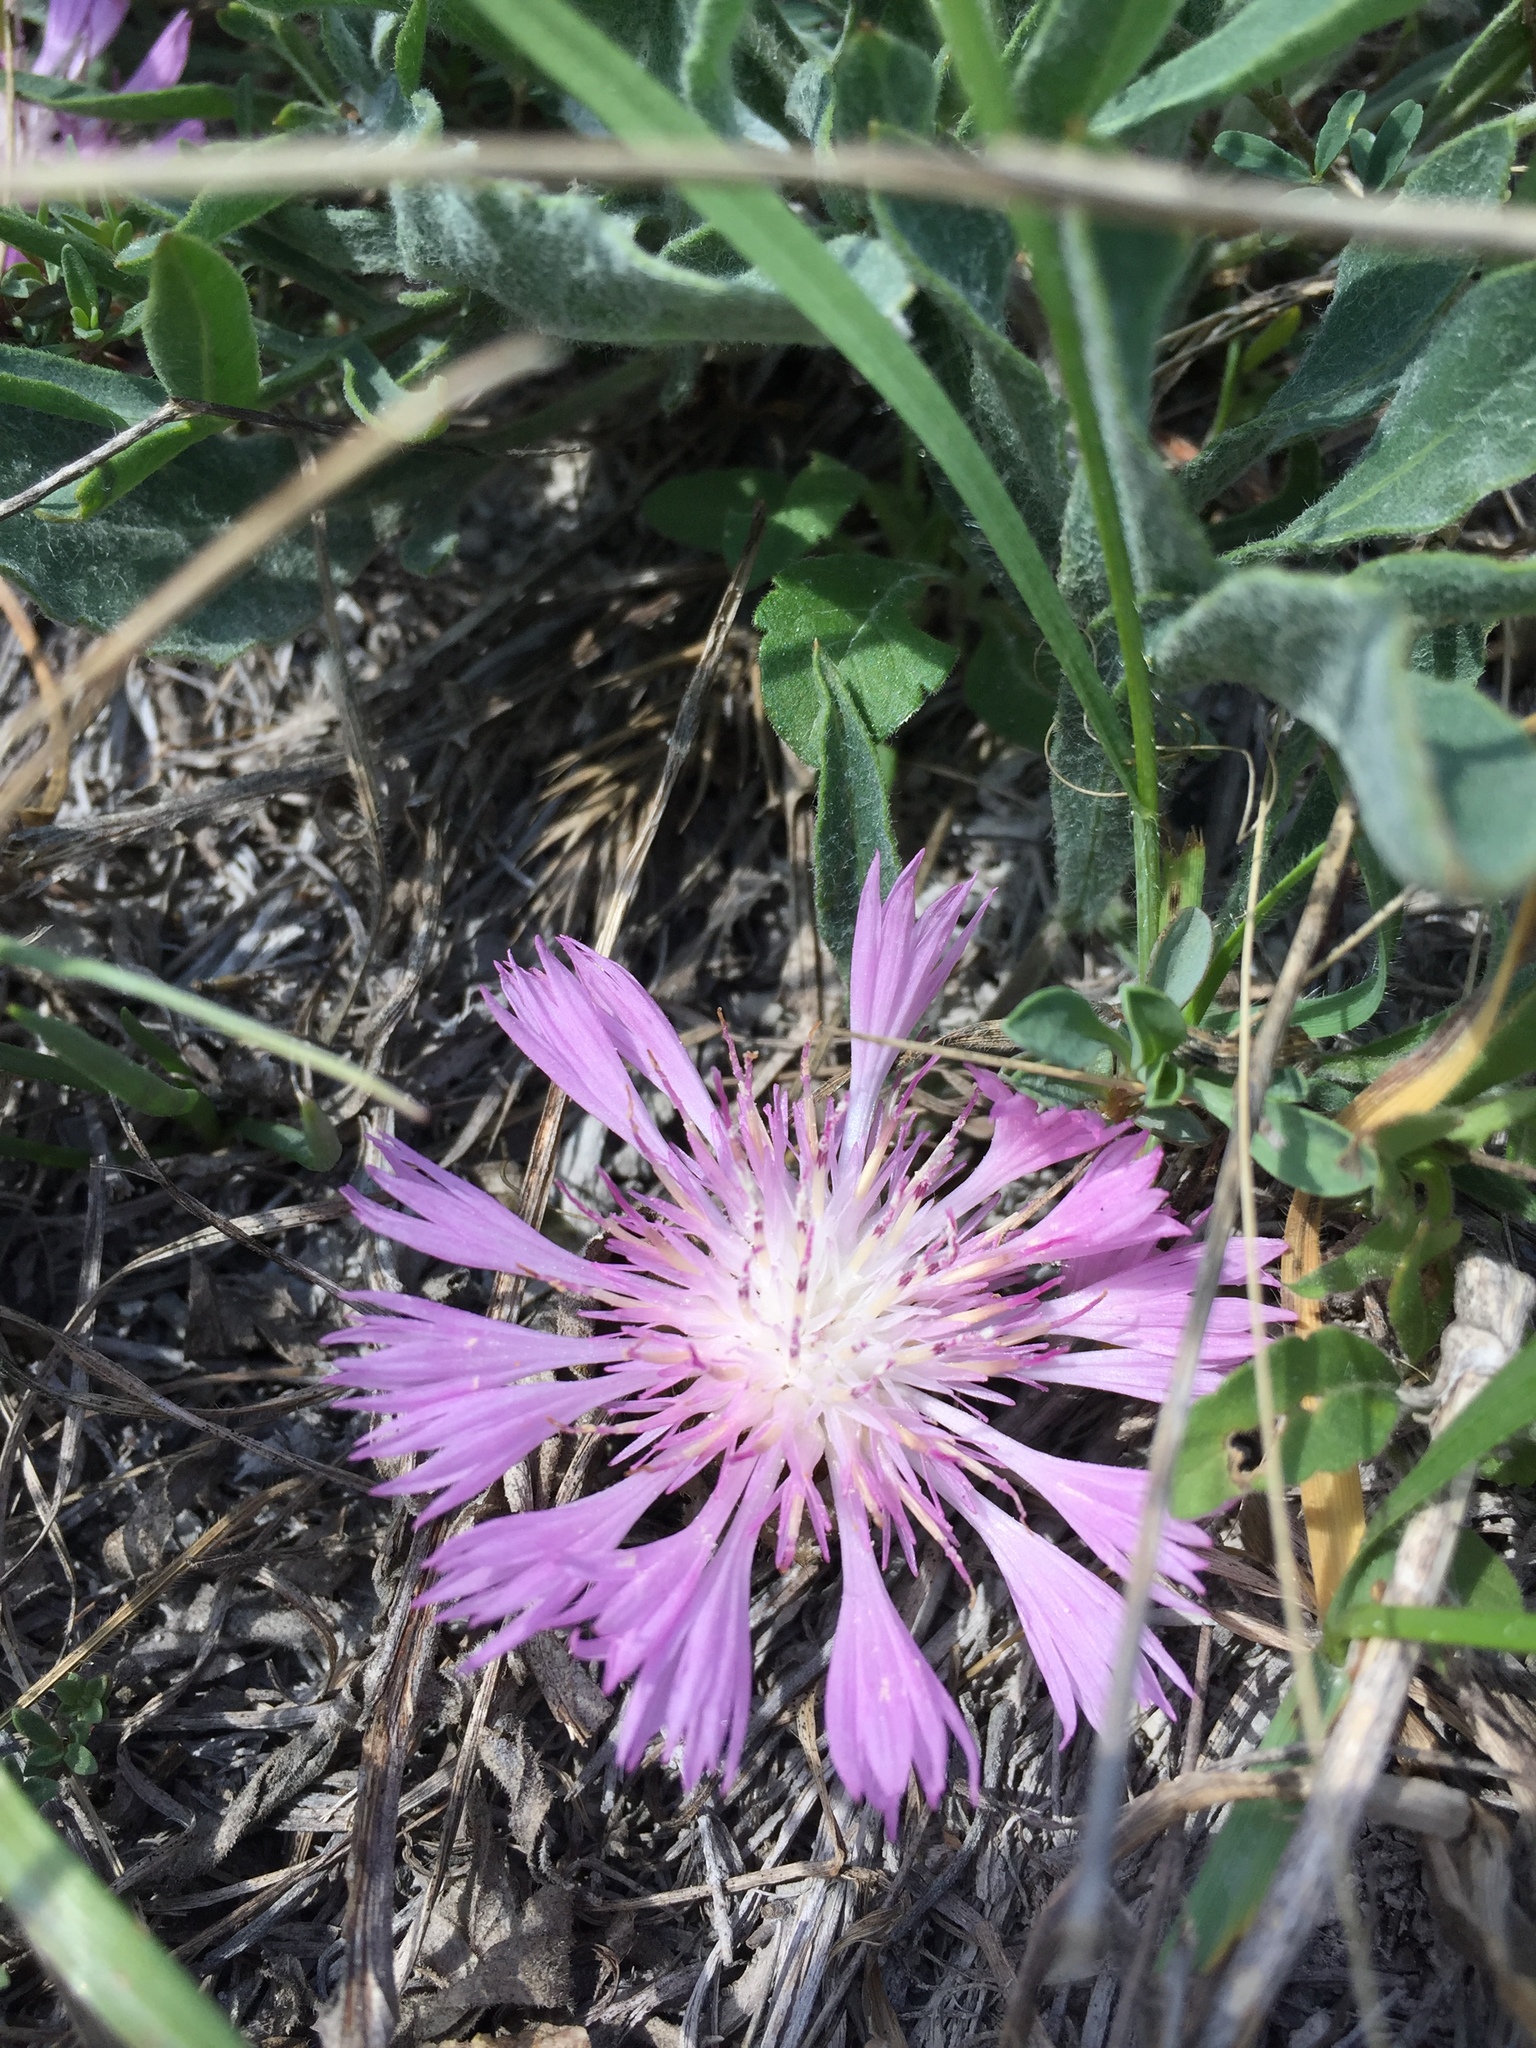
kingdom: Plantae
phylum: Tracheophyta
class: Magnoliopsida
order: Asterales
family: Asteraceae
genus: Psephellus
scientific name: Psephellus marschallianus
